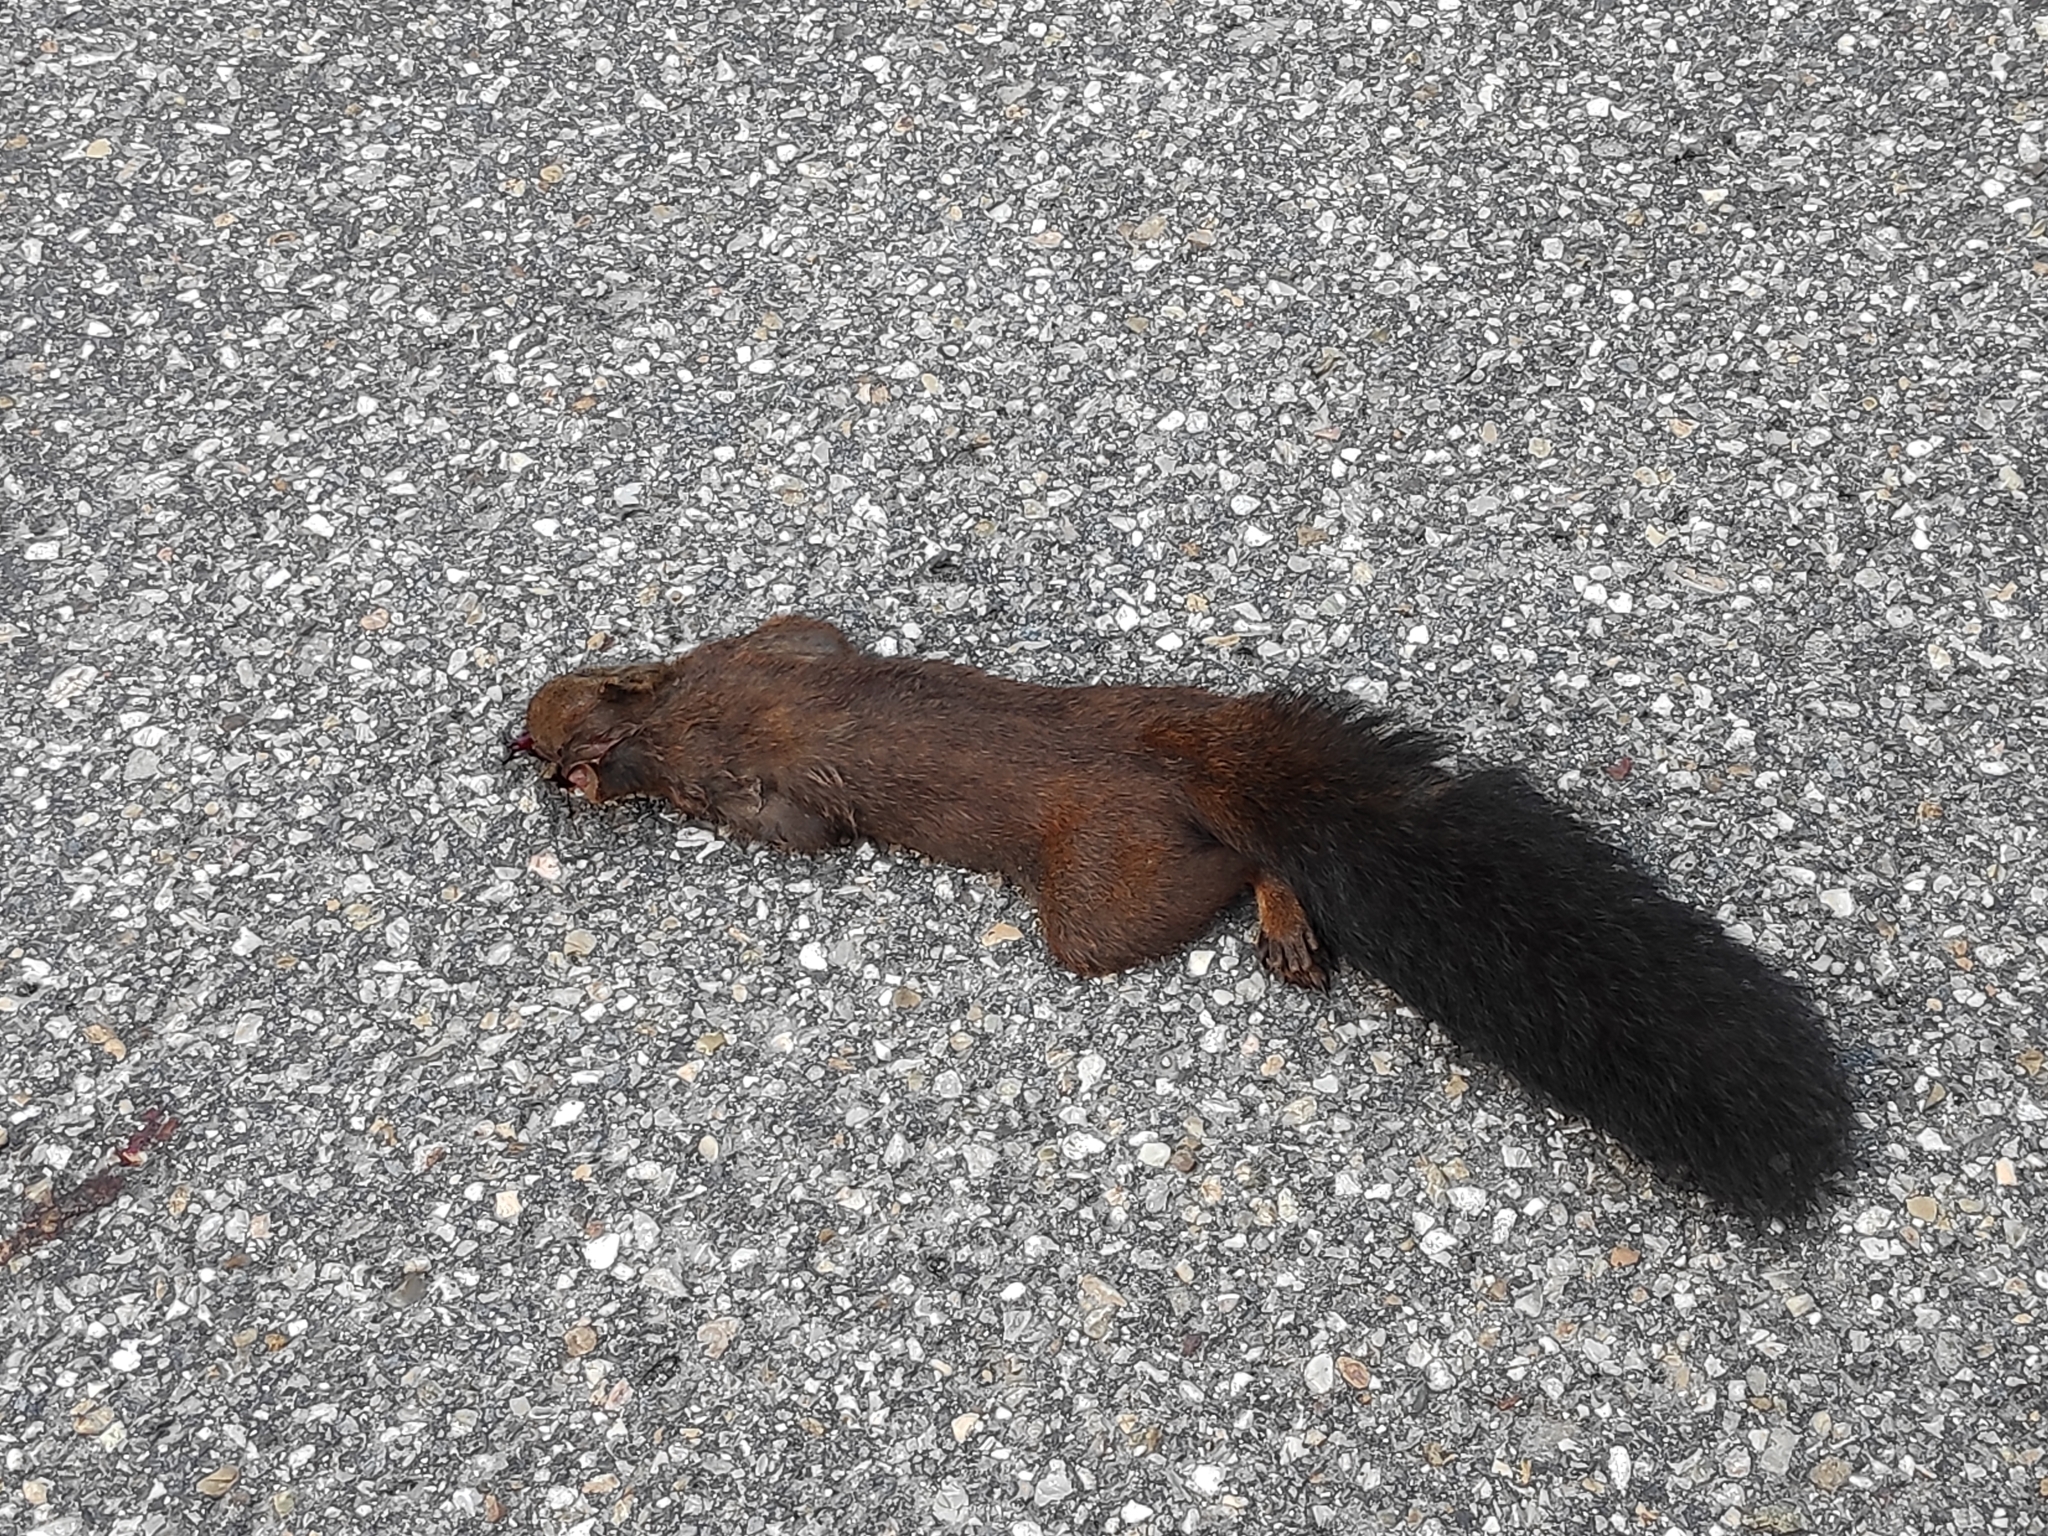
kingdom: Animalia
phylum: Chordata
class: Mammalia
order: Rodentia
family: Sciuridae
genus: Sciurus
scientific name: Sciurus vulgaris
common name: Eurasian red squirrel
